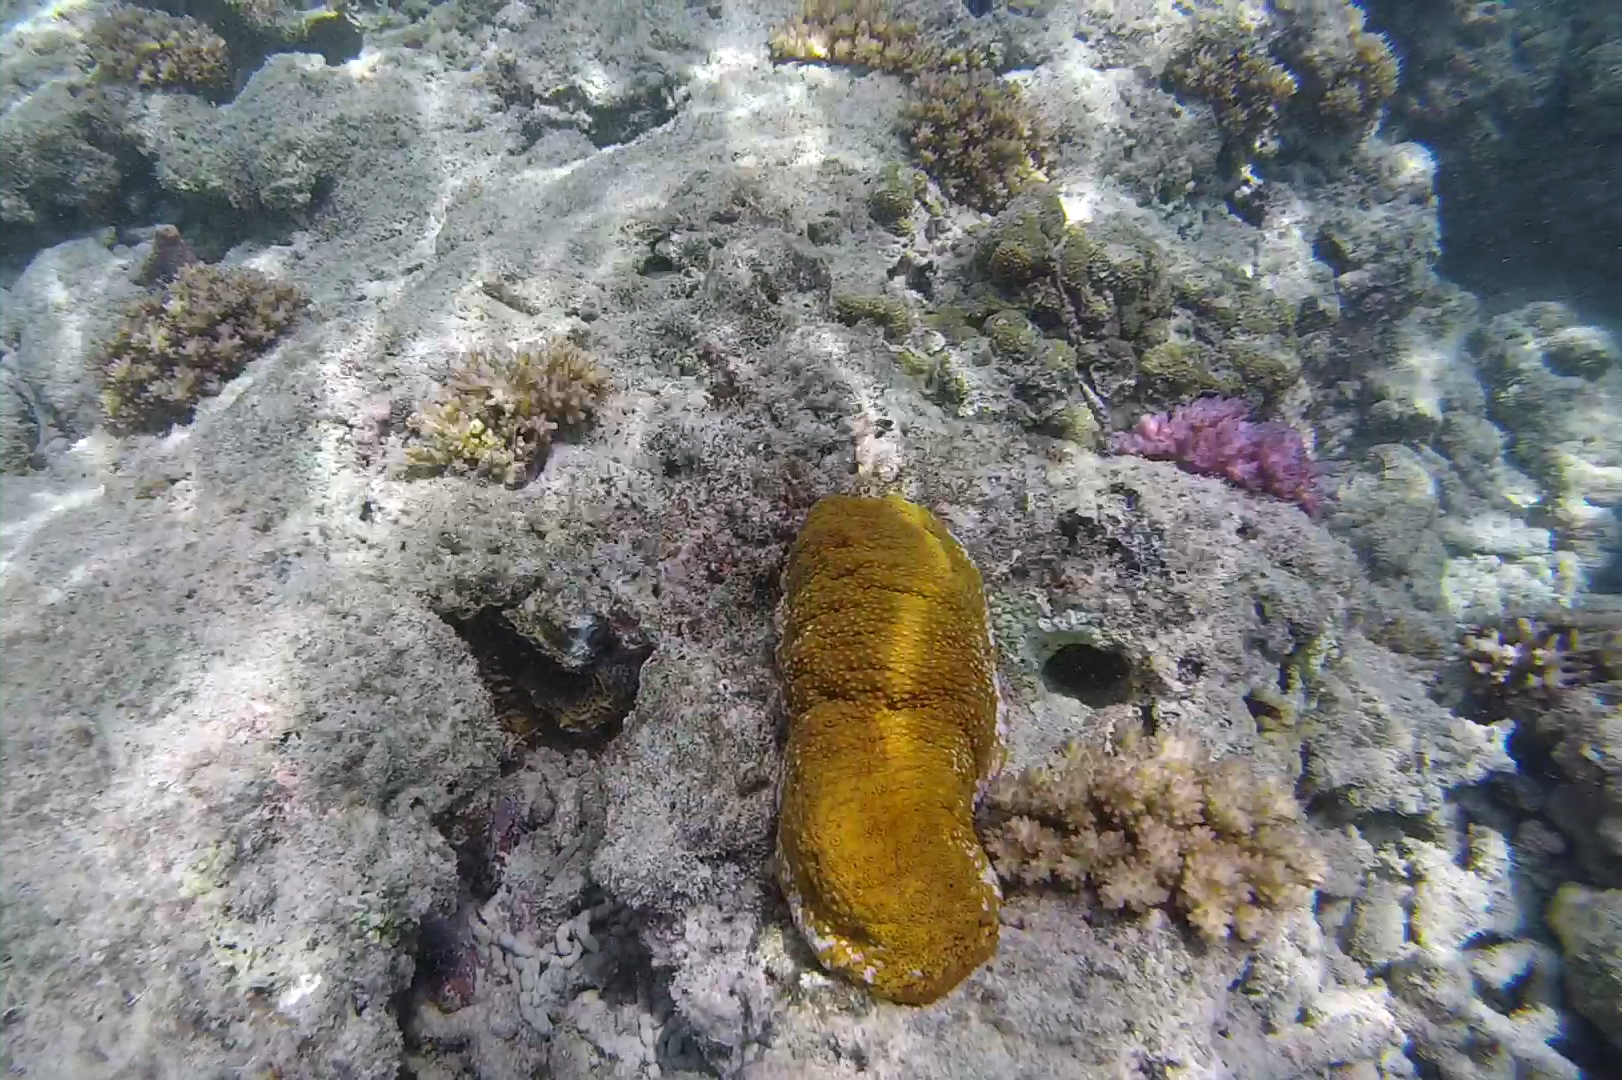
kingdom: Animalia
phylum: Echinodermata
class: Holothuroidea
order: Holothuriida
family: Holothuriidae
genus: Actinopyga
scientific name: Actinopyga mauritiana
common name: Surf redfish
